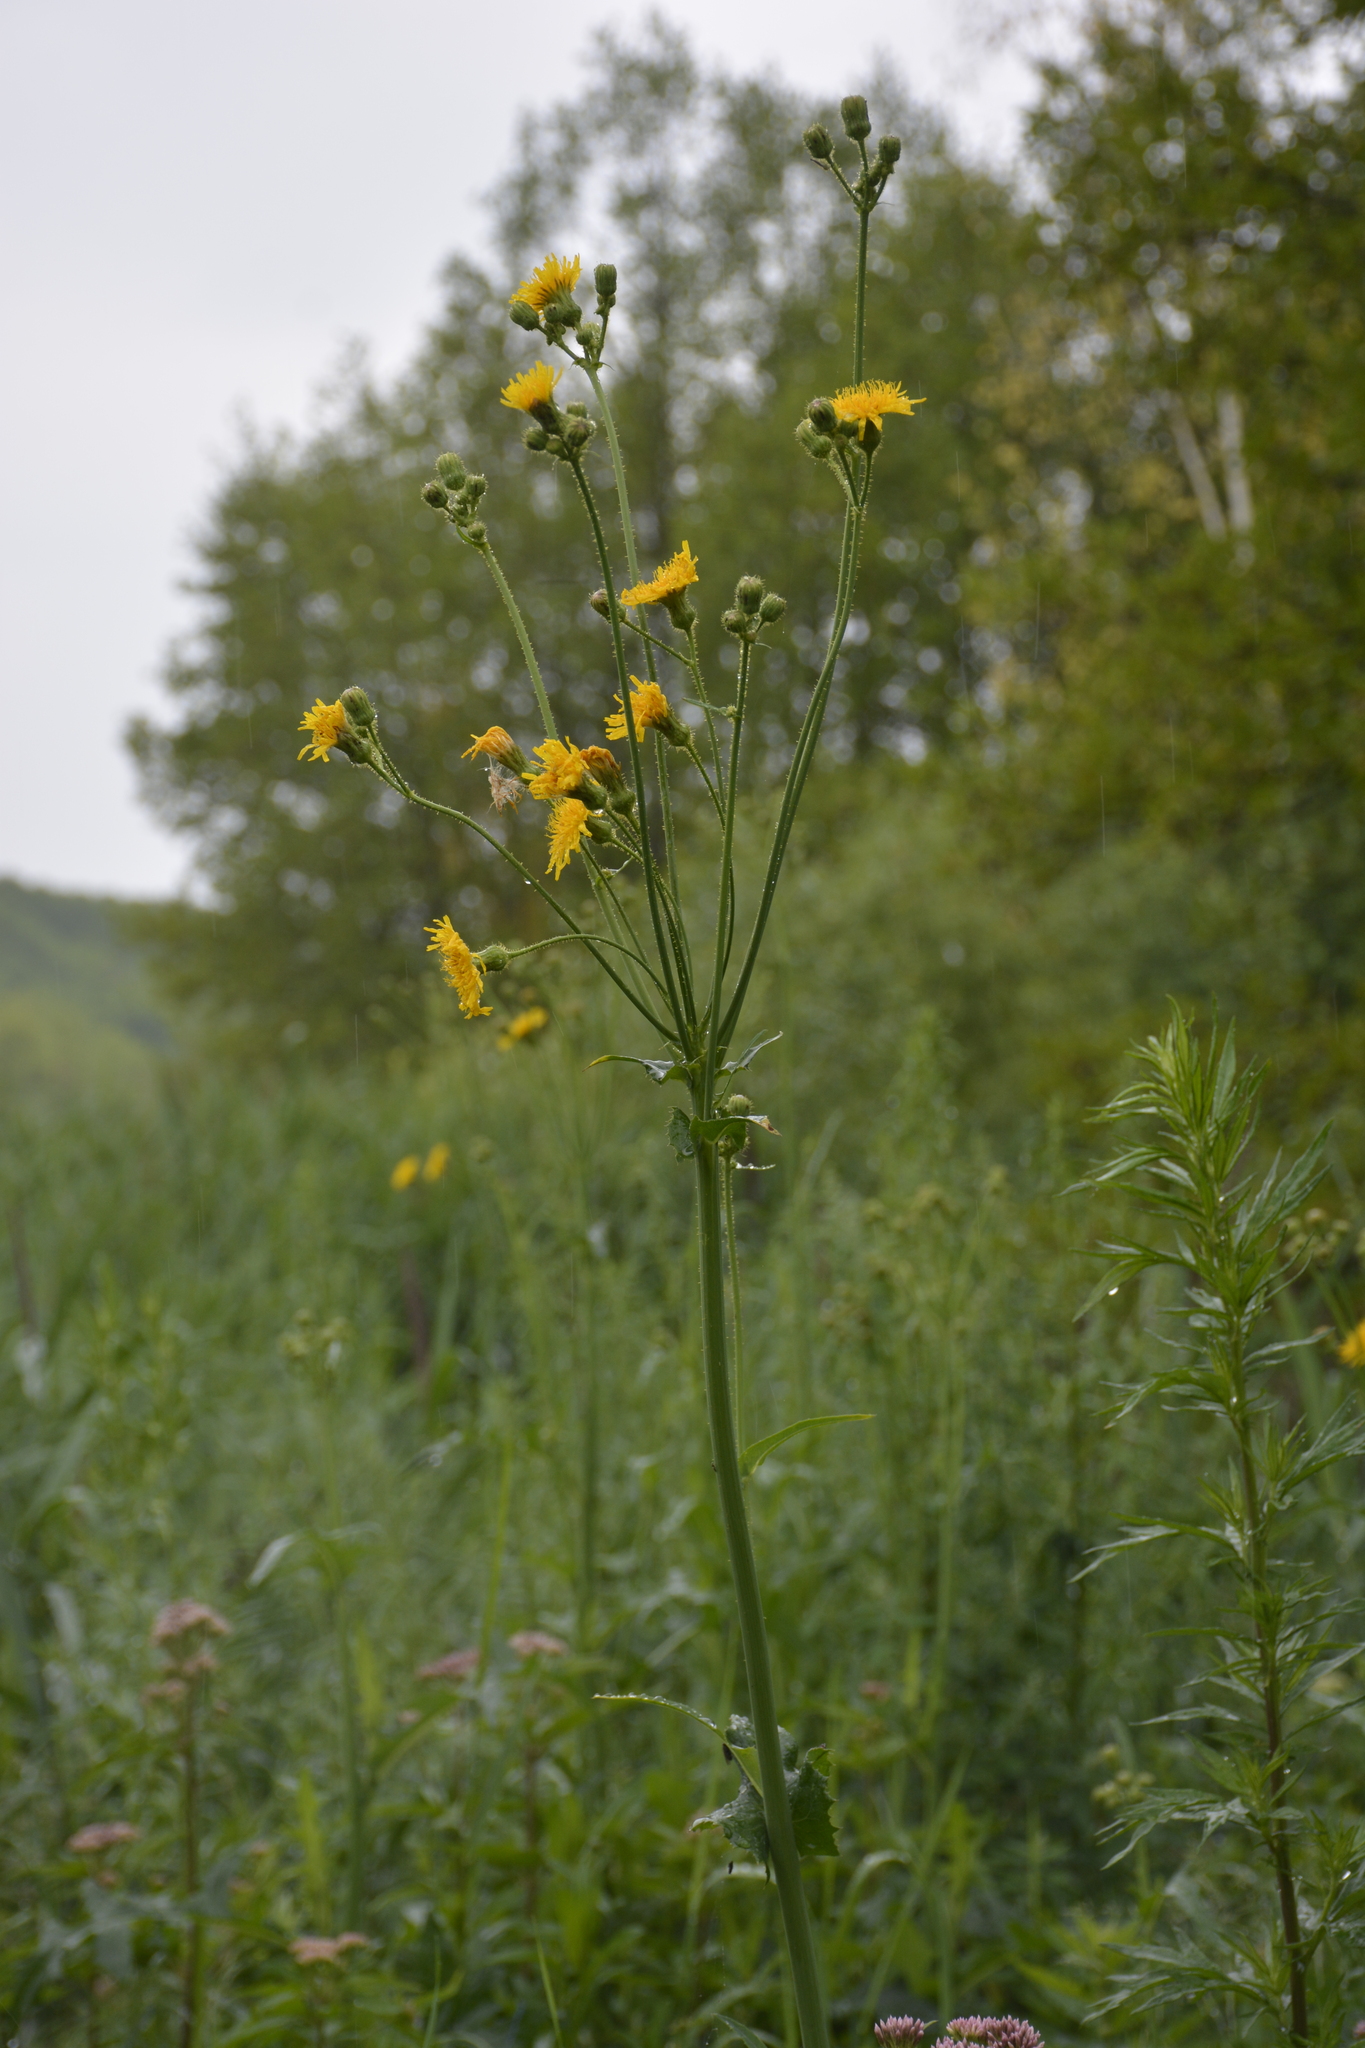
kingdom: Plantae
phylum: Tracheophyta
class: Magnoliopsida
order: Asterales
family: Asteraceae
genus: Sonchus
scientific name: Sonchus arvensis
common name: Perennial sow-thistle
